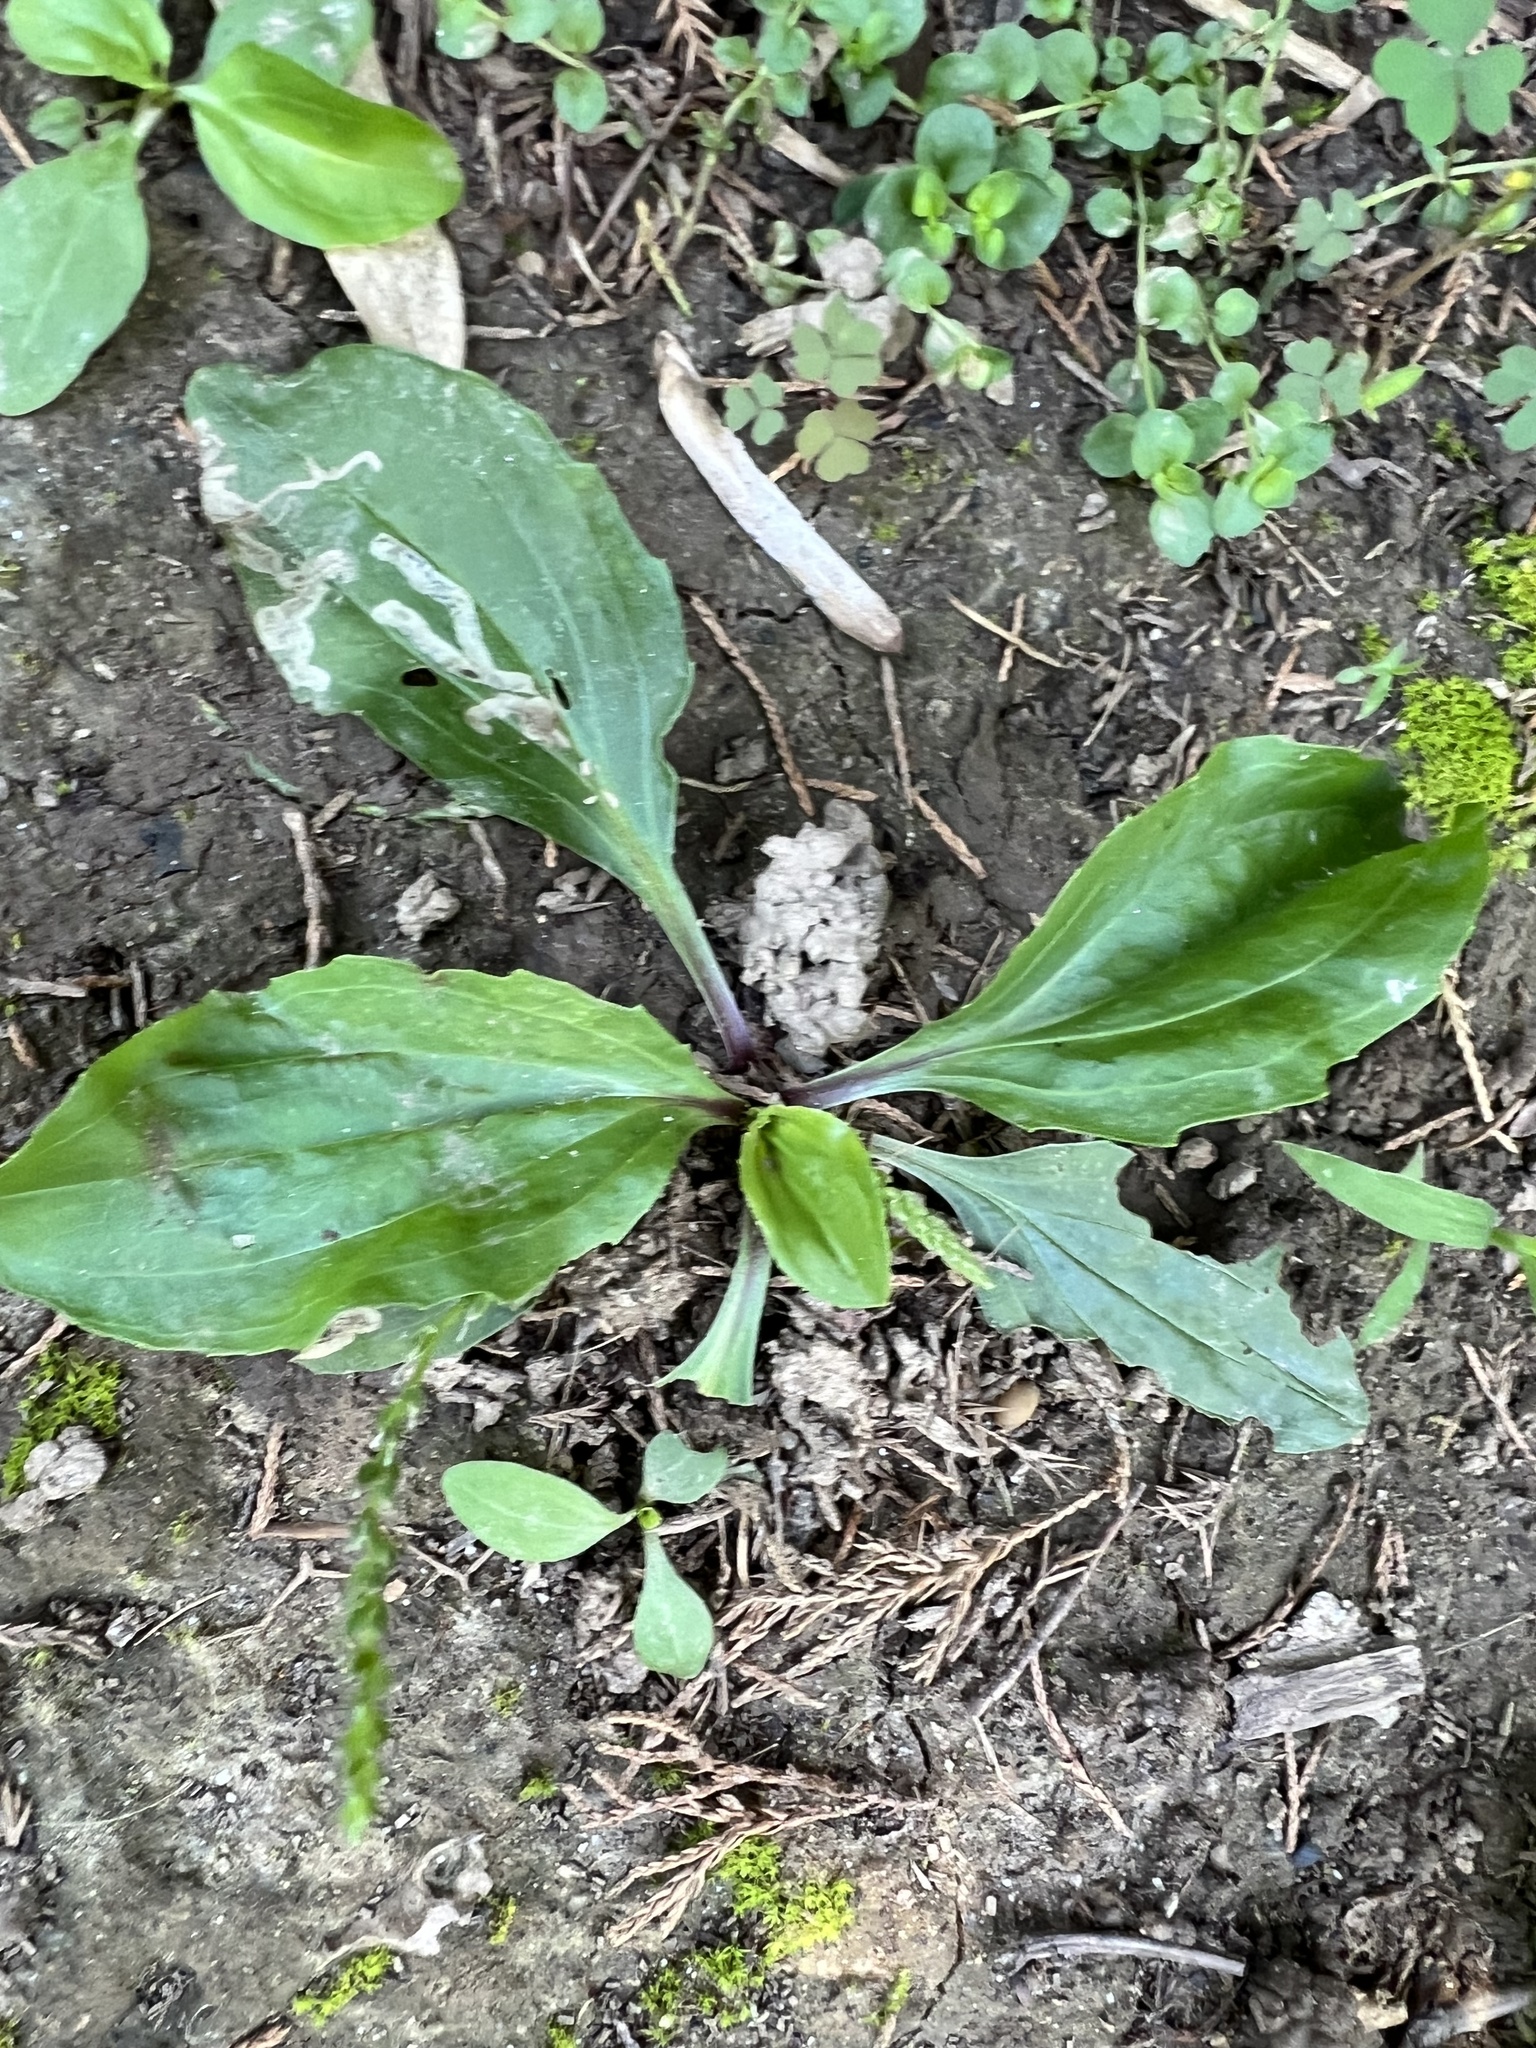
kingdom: Plantae
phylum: Tracheophyta
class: Magnoliopsida
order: Lamiales
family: Plantaginaceae
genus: Plantago
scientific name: Plantago rugelii
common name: American plantain
